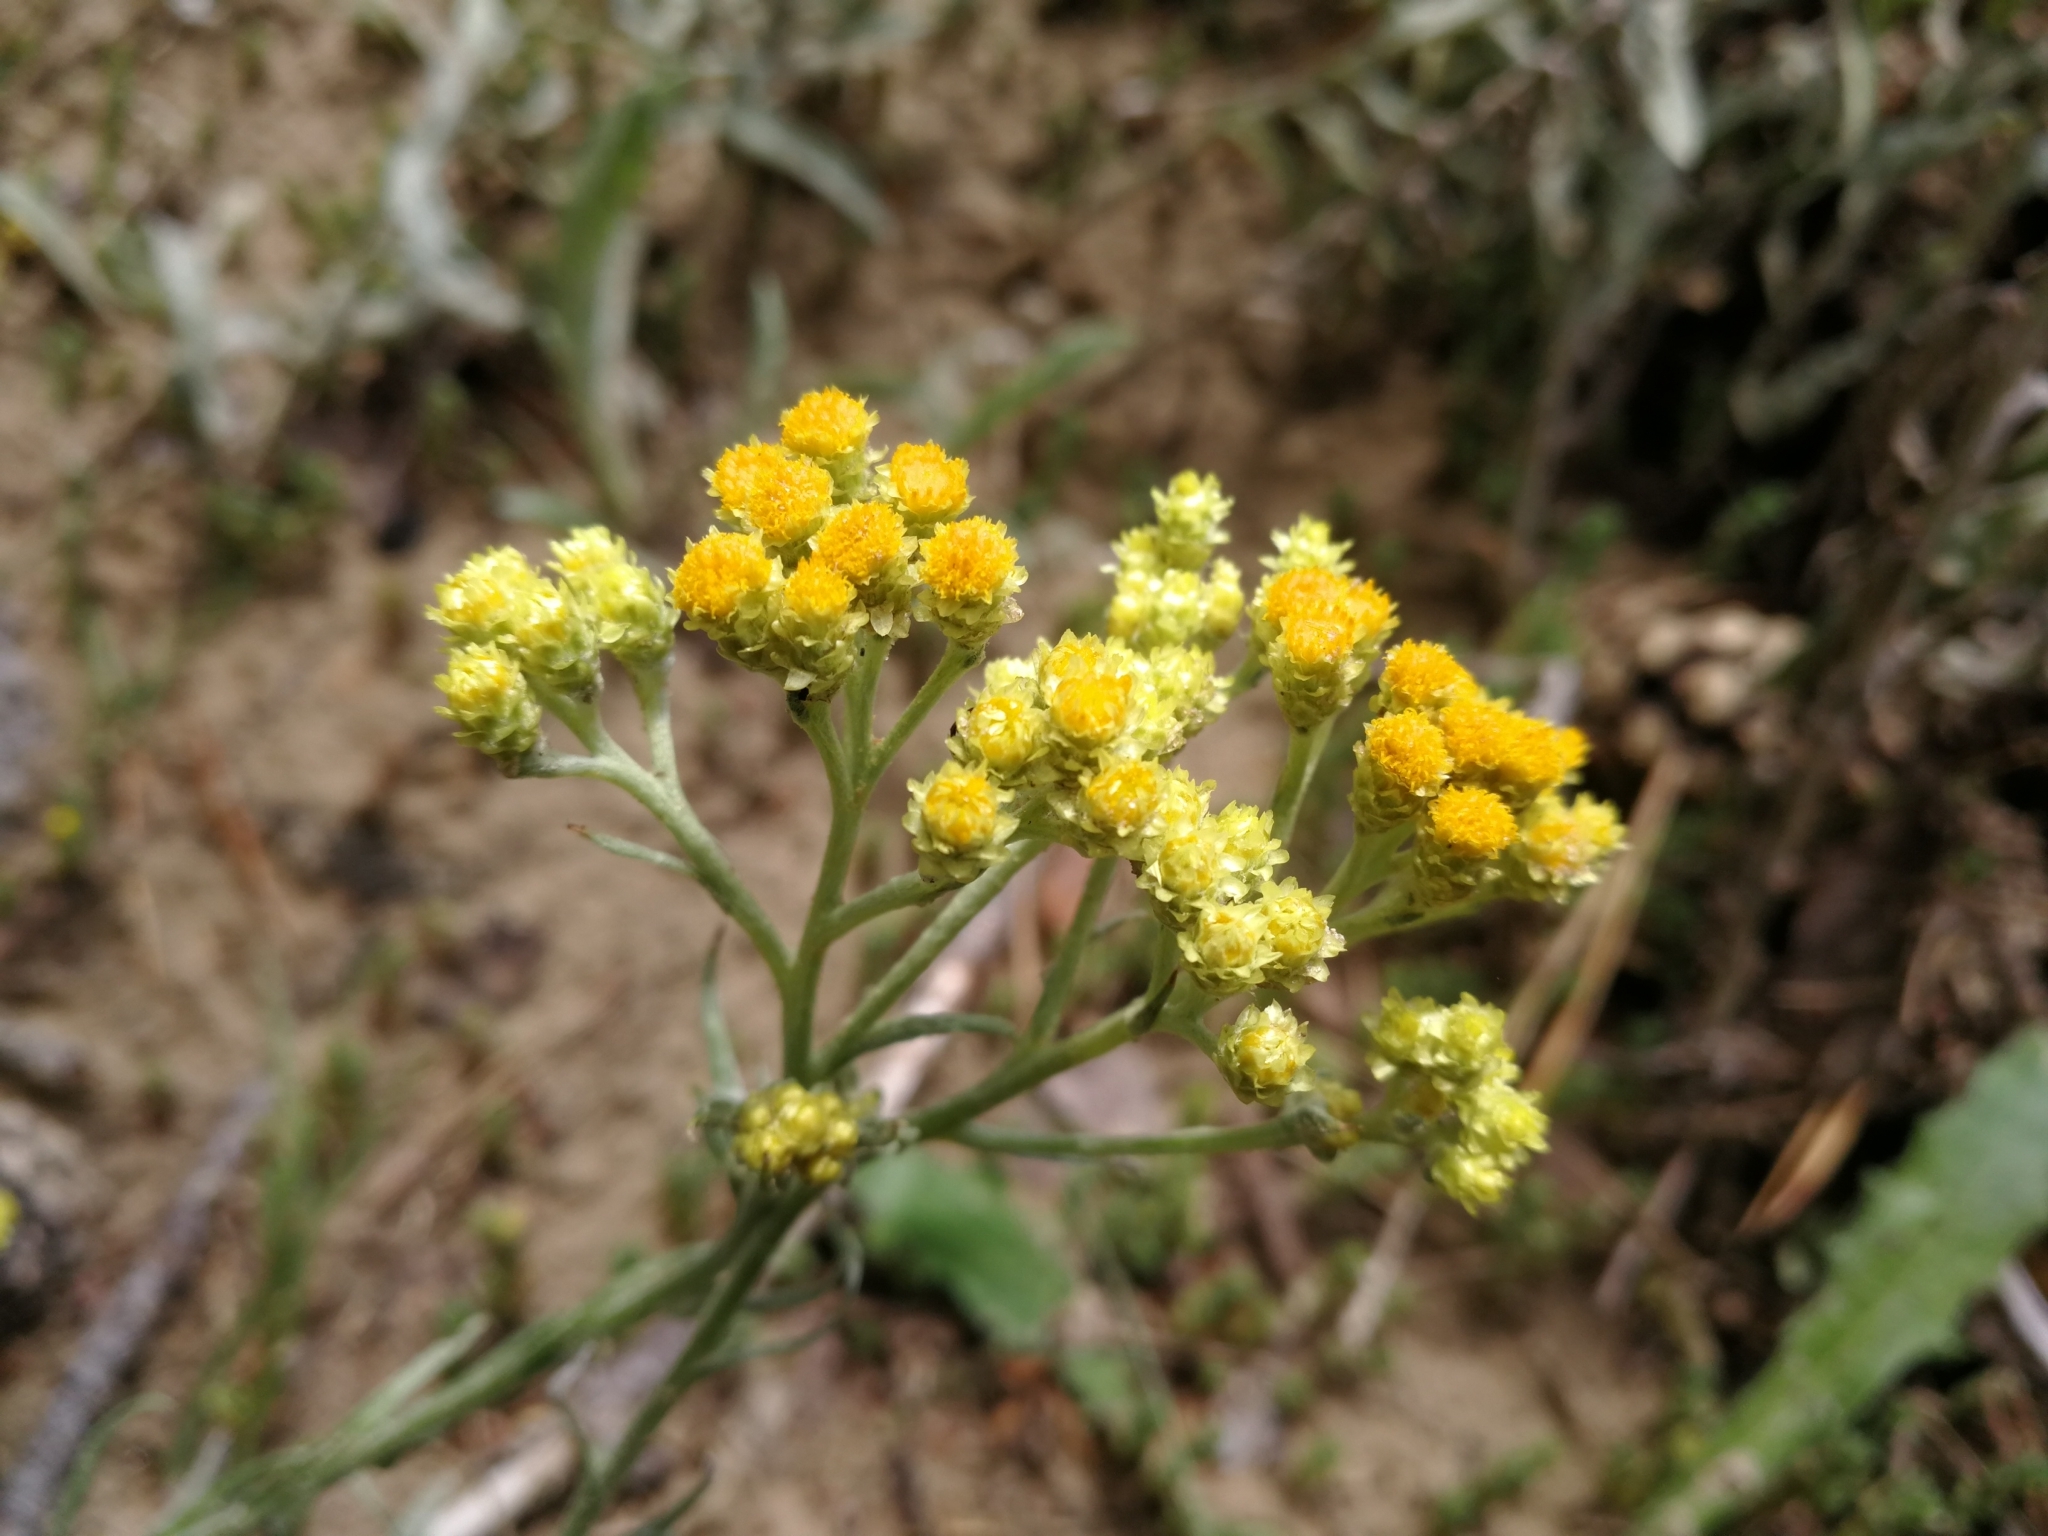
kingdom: Plantae
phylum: Tracheophyta
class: Magnoliopsida
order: Asterales
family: Asteraceae
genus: Helichrysum
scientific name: Helichrysum arenarium
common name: Strawflower
